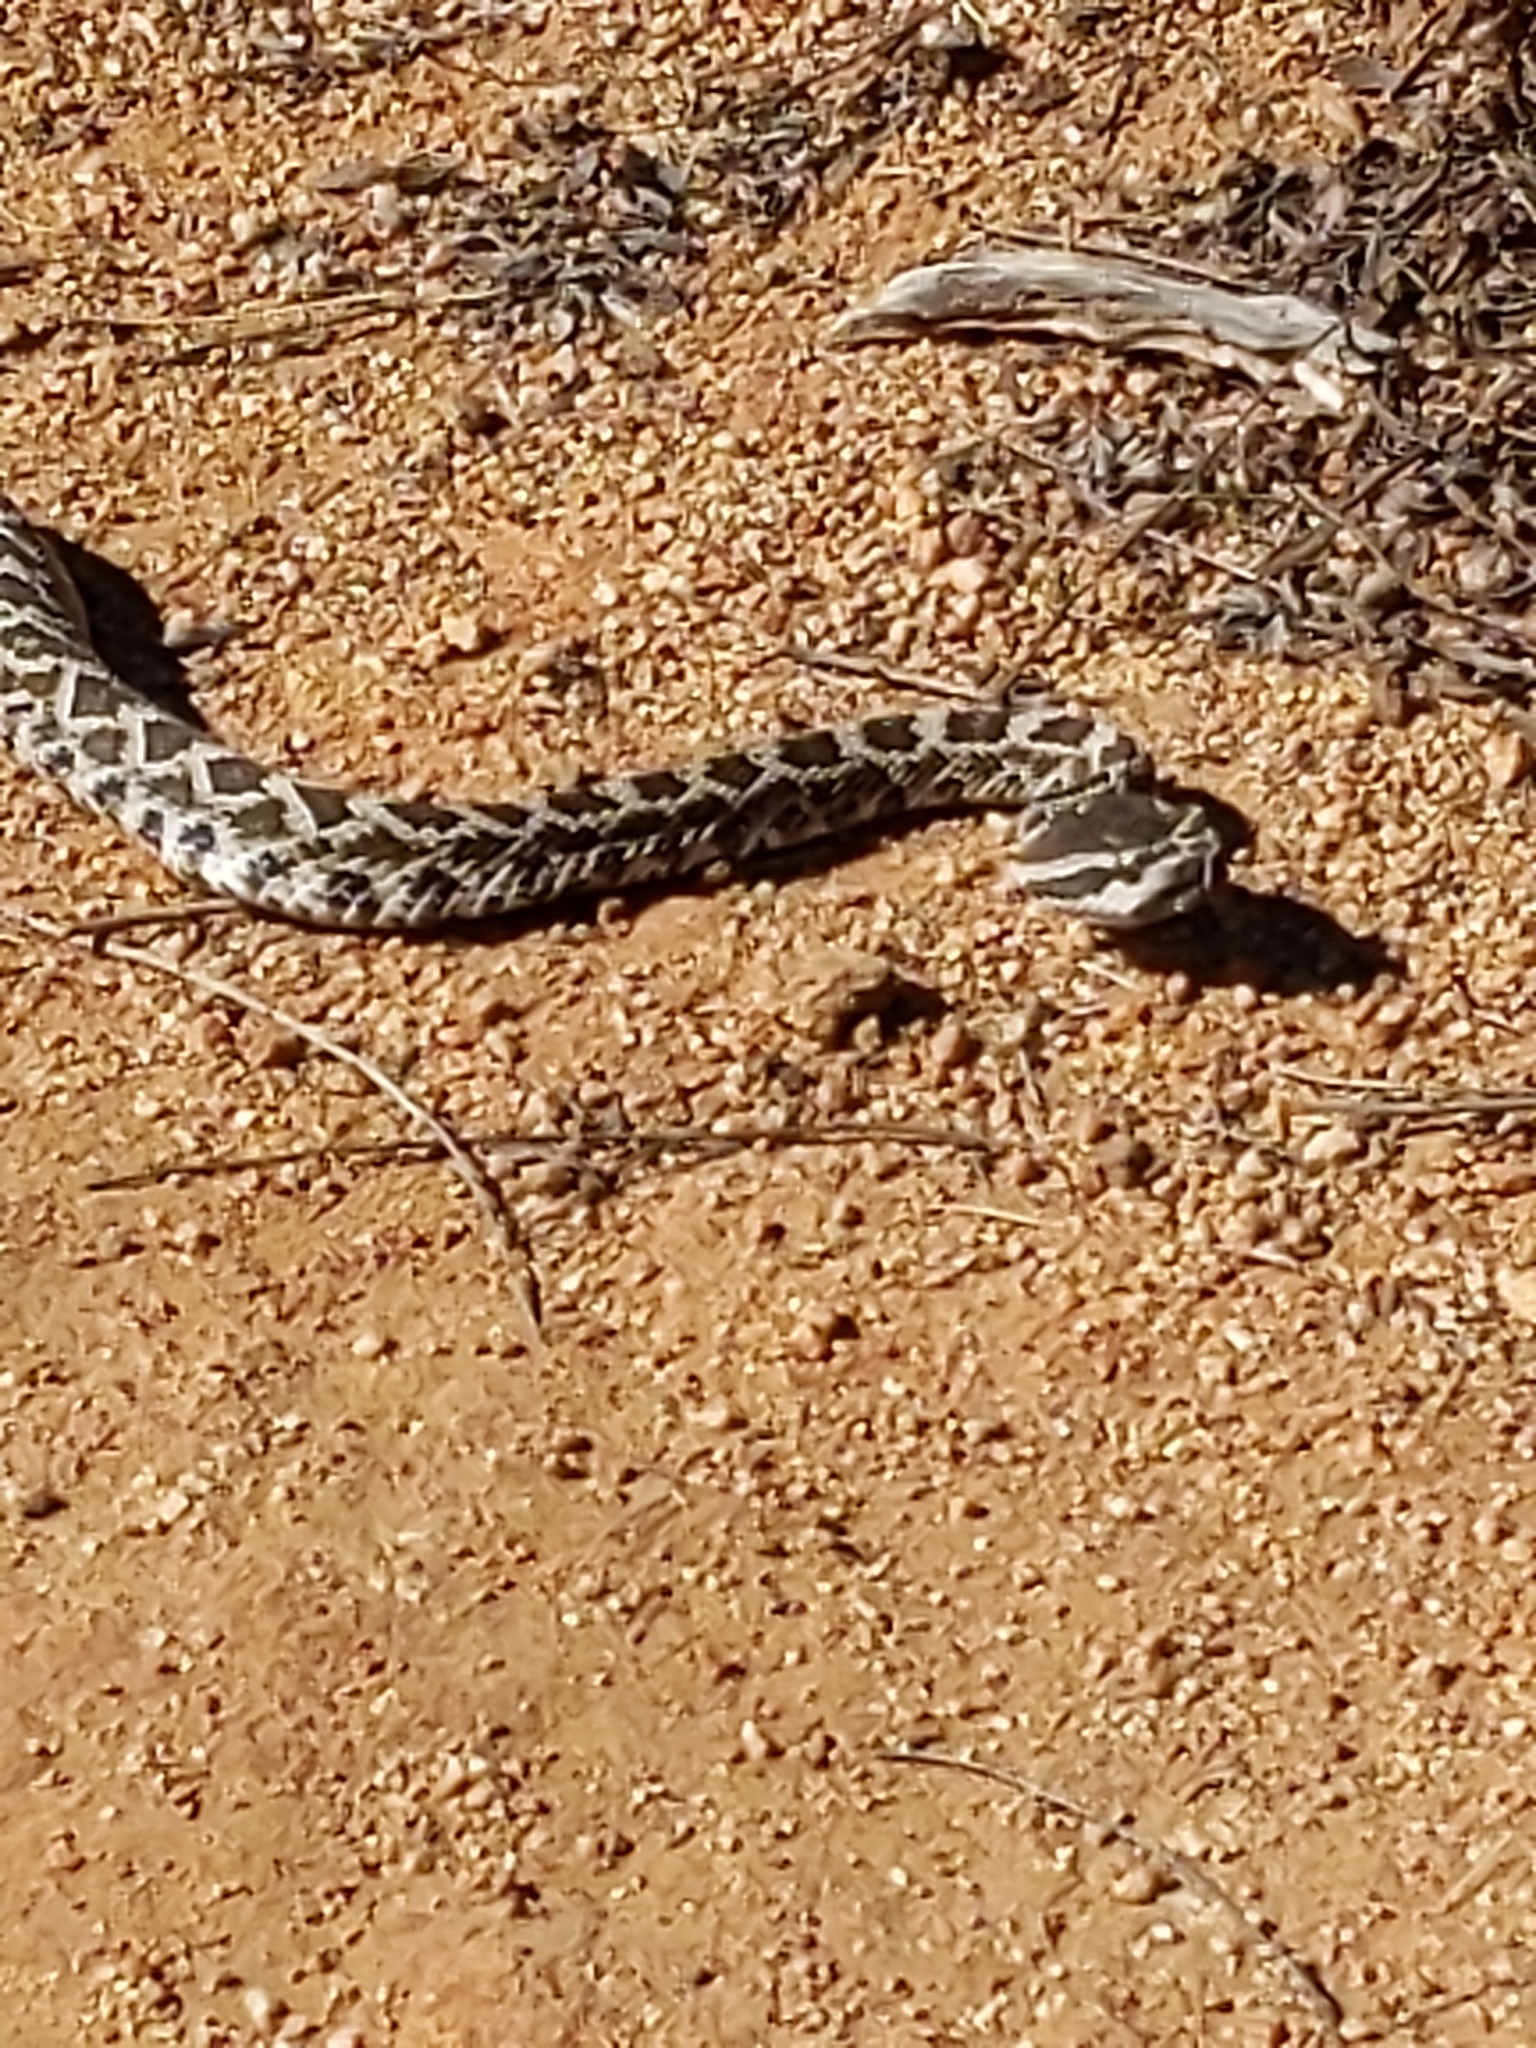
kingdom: Animalia
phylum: Chordata
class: Squamata
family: Viperidae
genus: Crotalus
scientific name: Crotalus oreganus
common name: Abyssus
